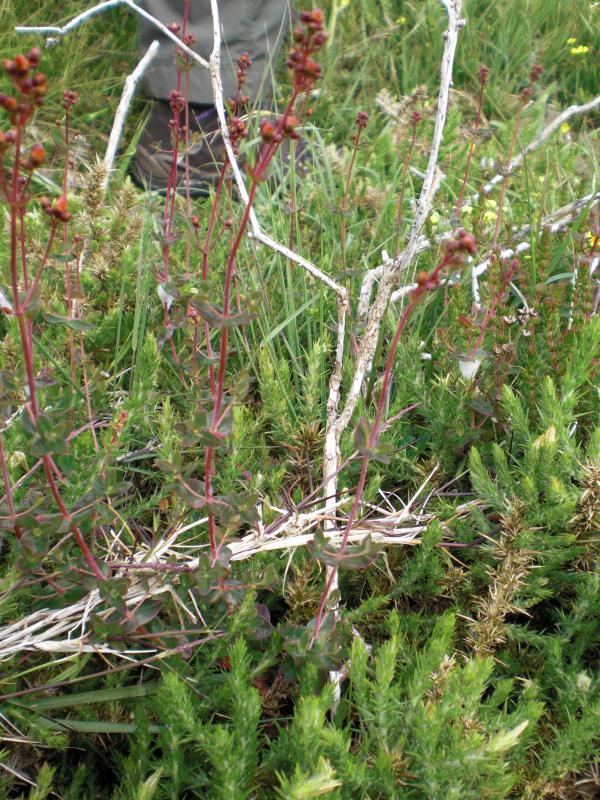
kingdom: Plantae
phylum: Tracheophyta
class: Magnoliopsida
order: Fabales
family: Fabaceae
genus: Ulex
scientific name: Ulex gallii
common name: Western gorse
